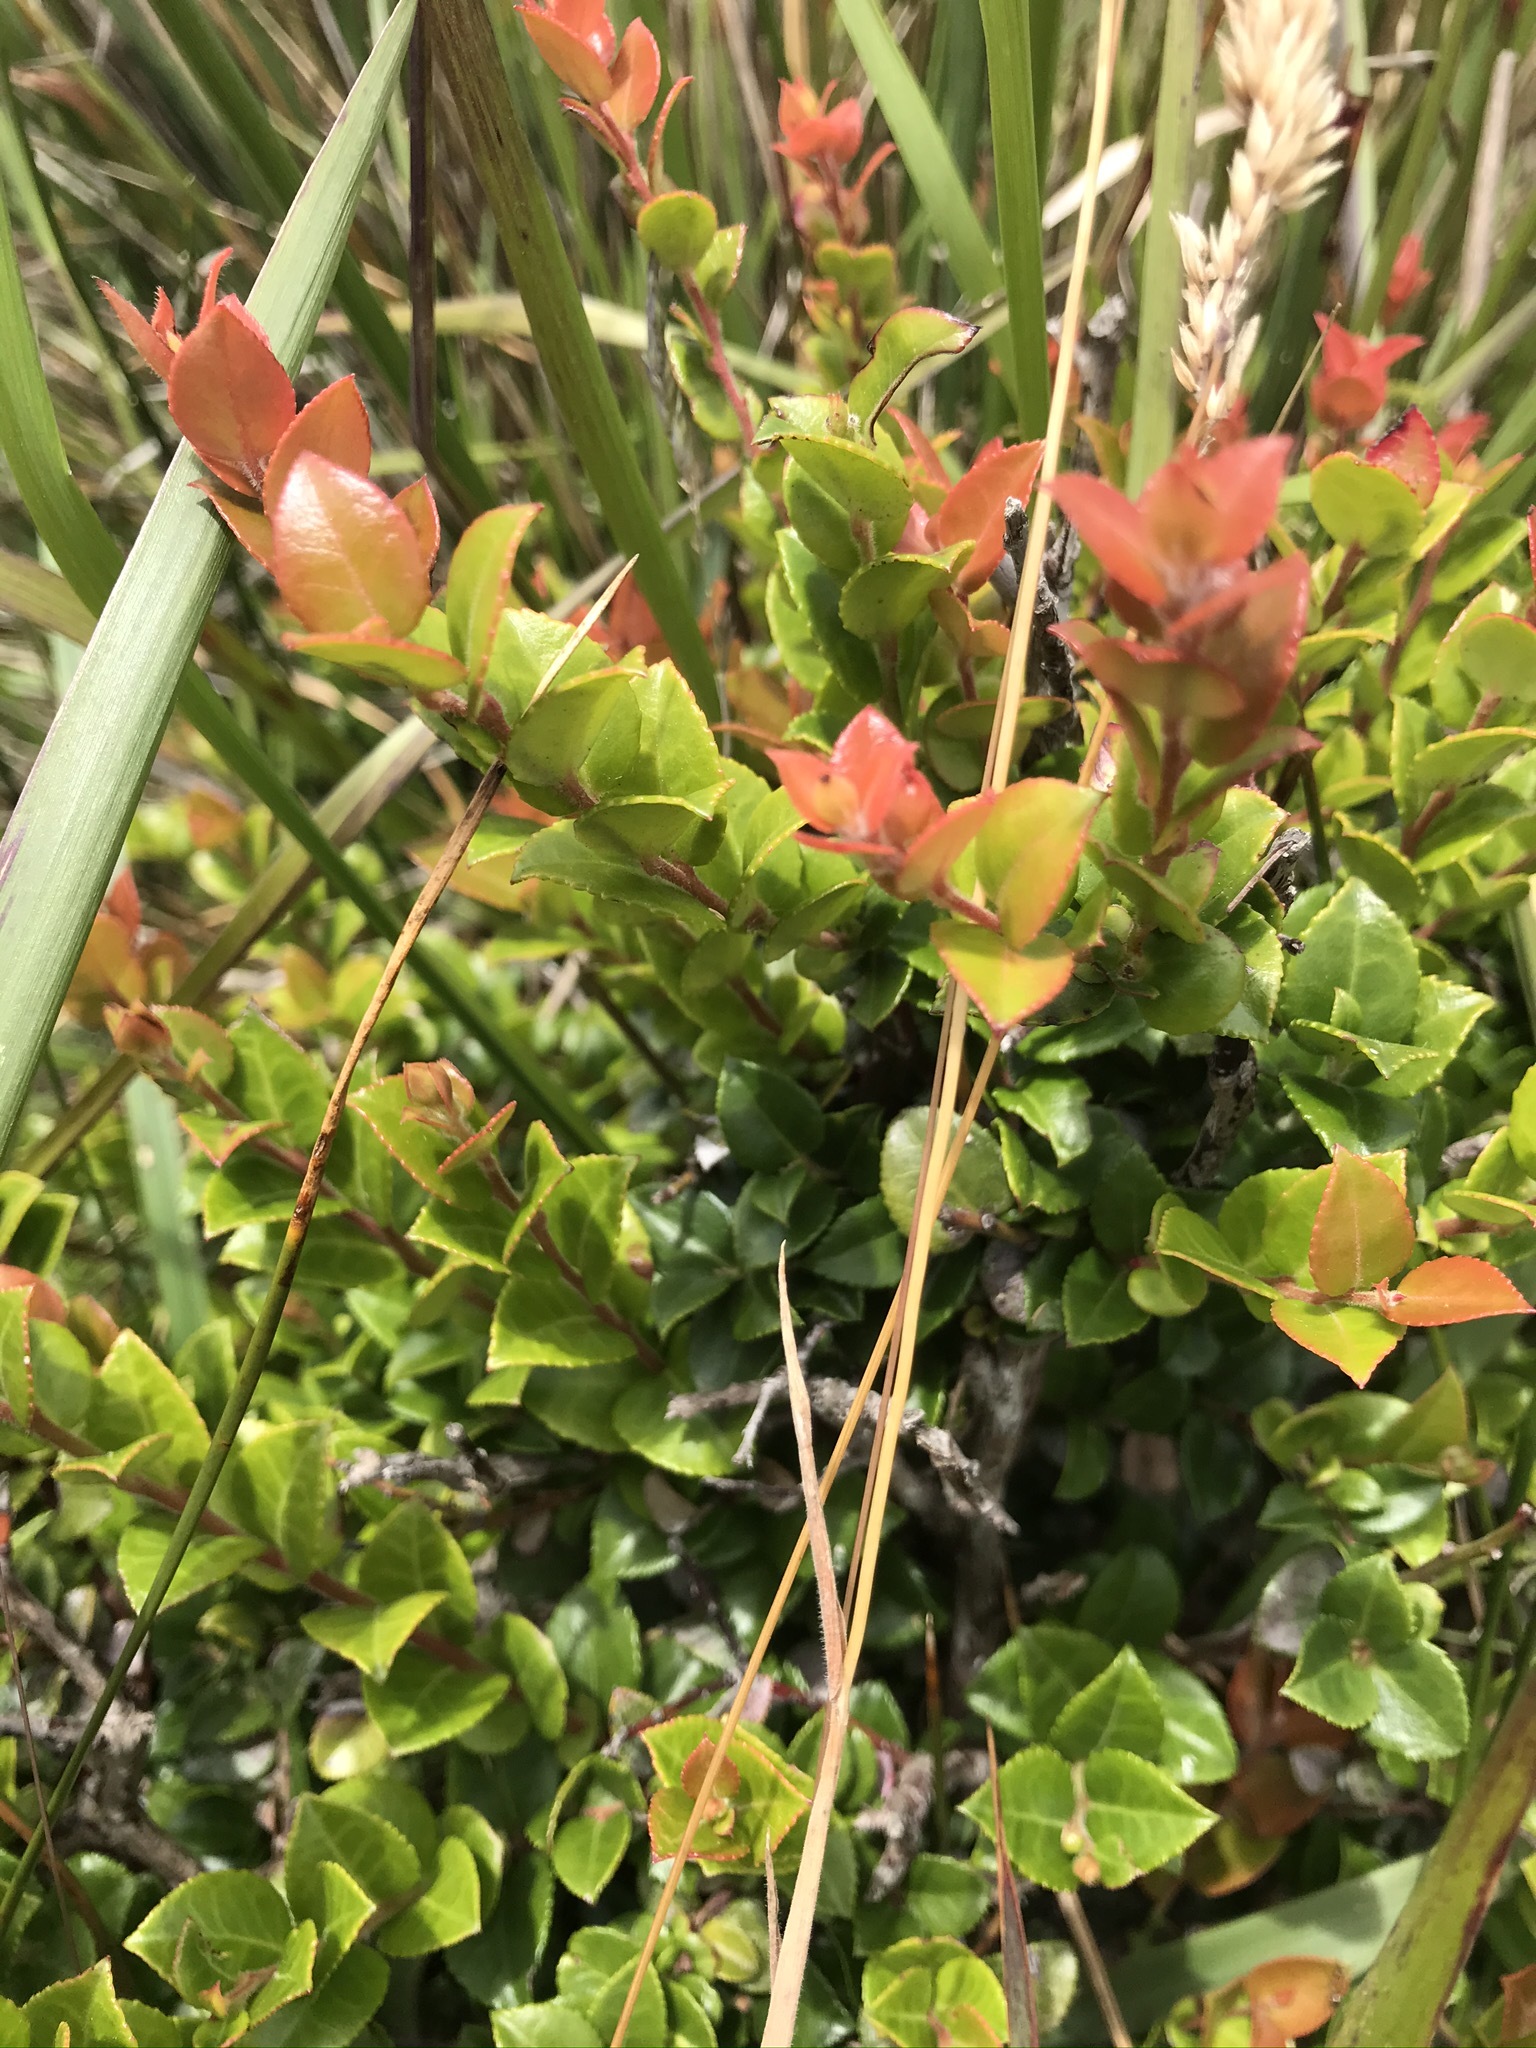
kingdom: Plantae
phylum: Tracheophyta
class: Magnoliopsida
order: Ericales
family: Ericaceae
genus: Vaccinium
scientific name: Vaccinium ovatum
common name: California-huckleberry
